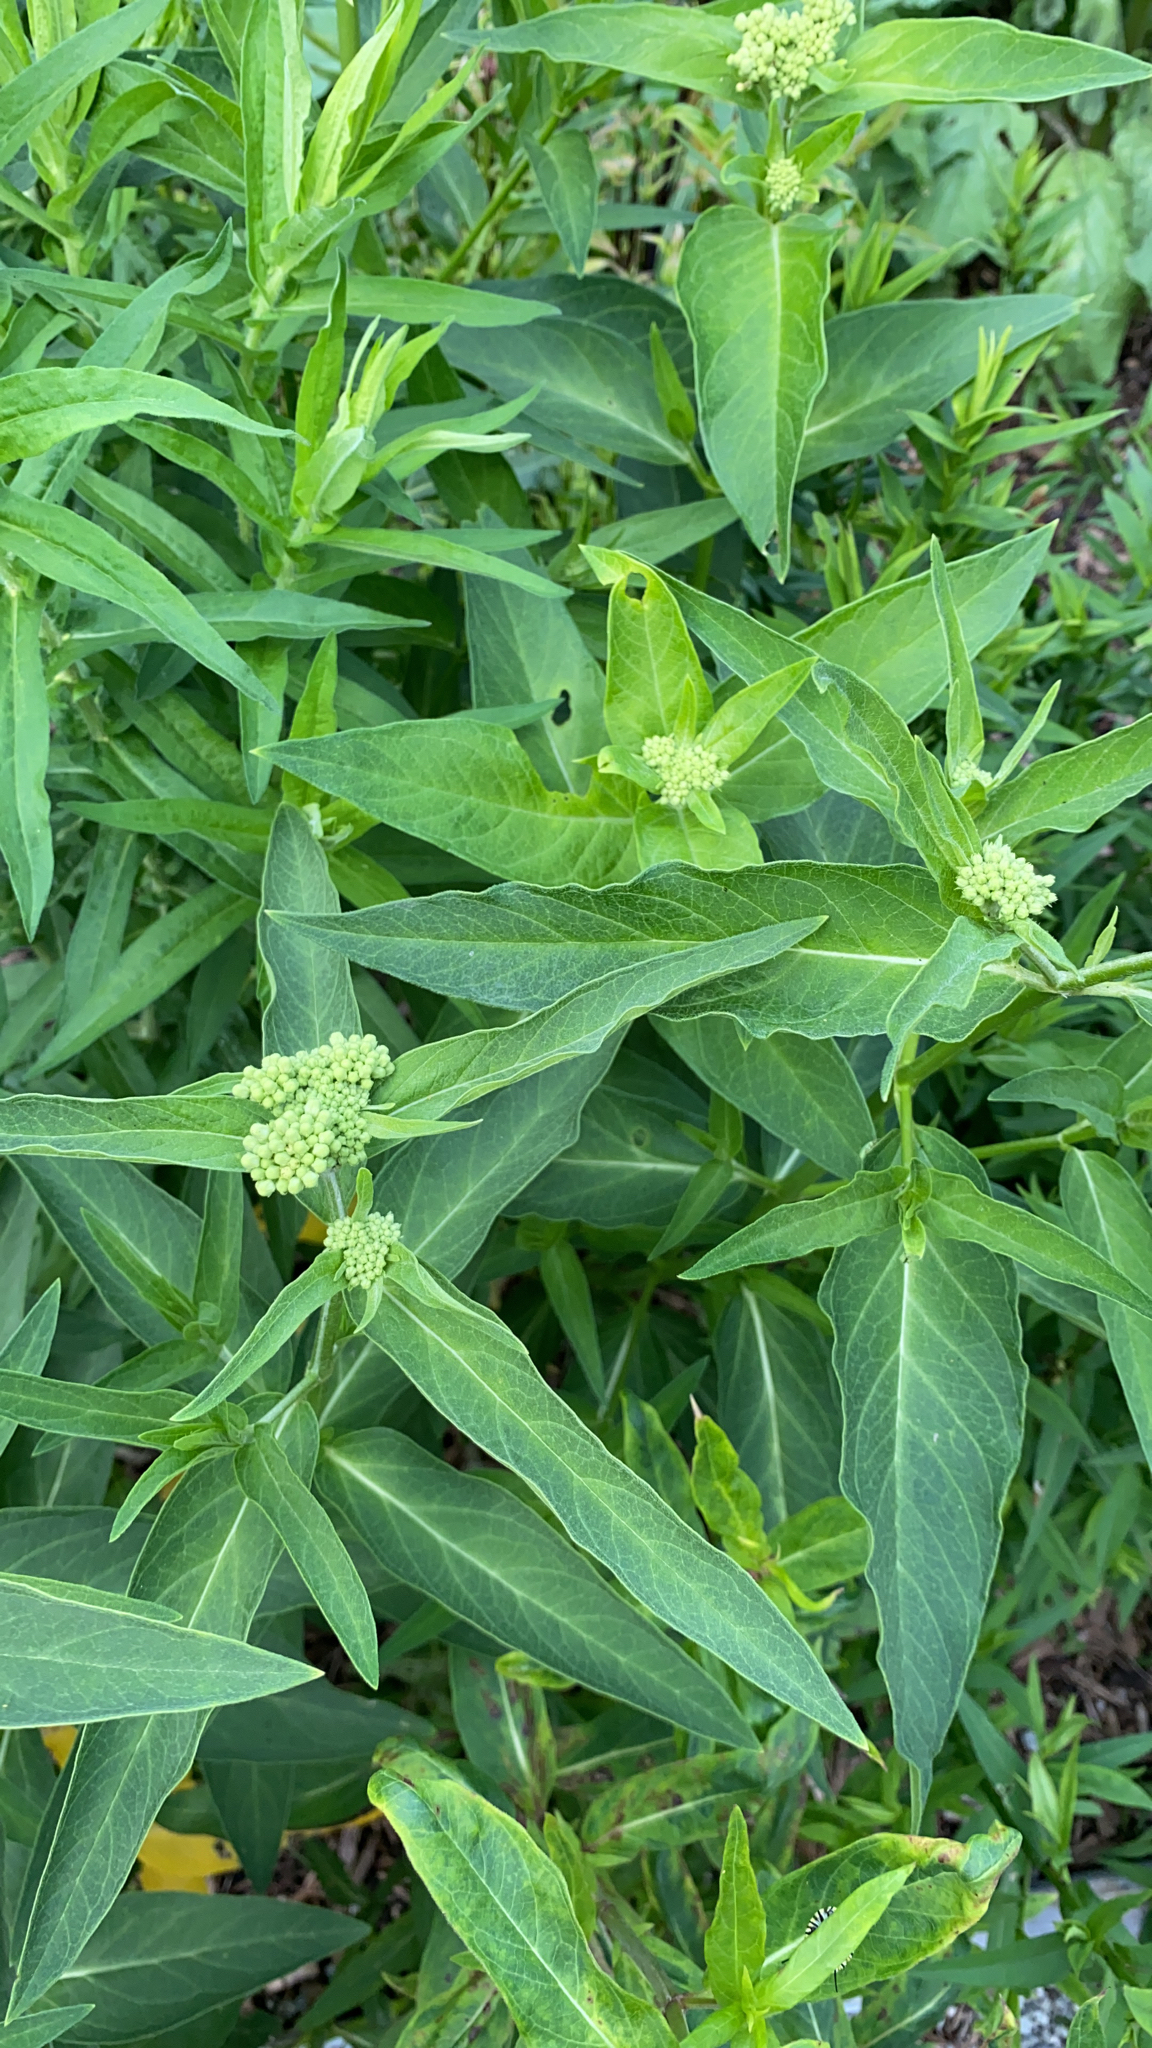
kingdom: Plantae
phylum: Tracheophyta
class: Magnoliopsida
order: Gentianales
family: Apocynaceae
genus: Asclepias
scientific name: Asclepias incarnata
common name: Swamp milkweed
